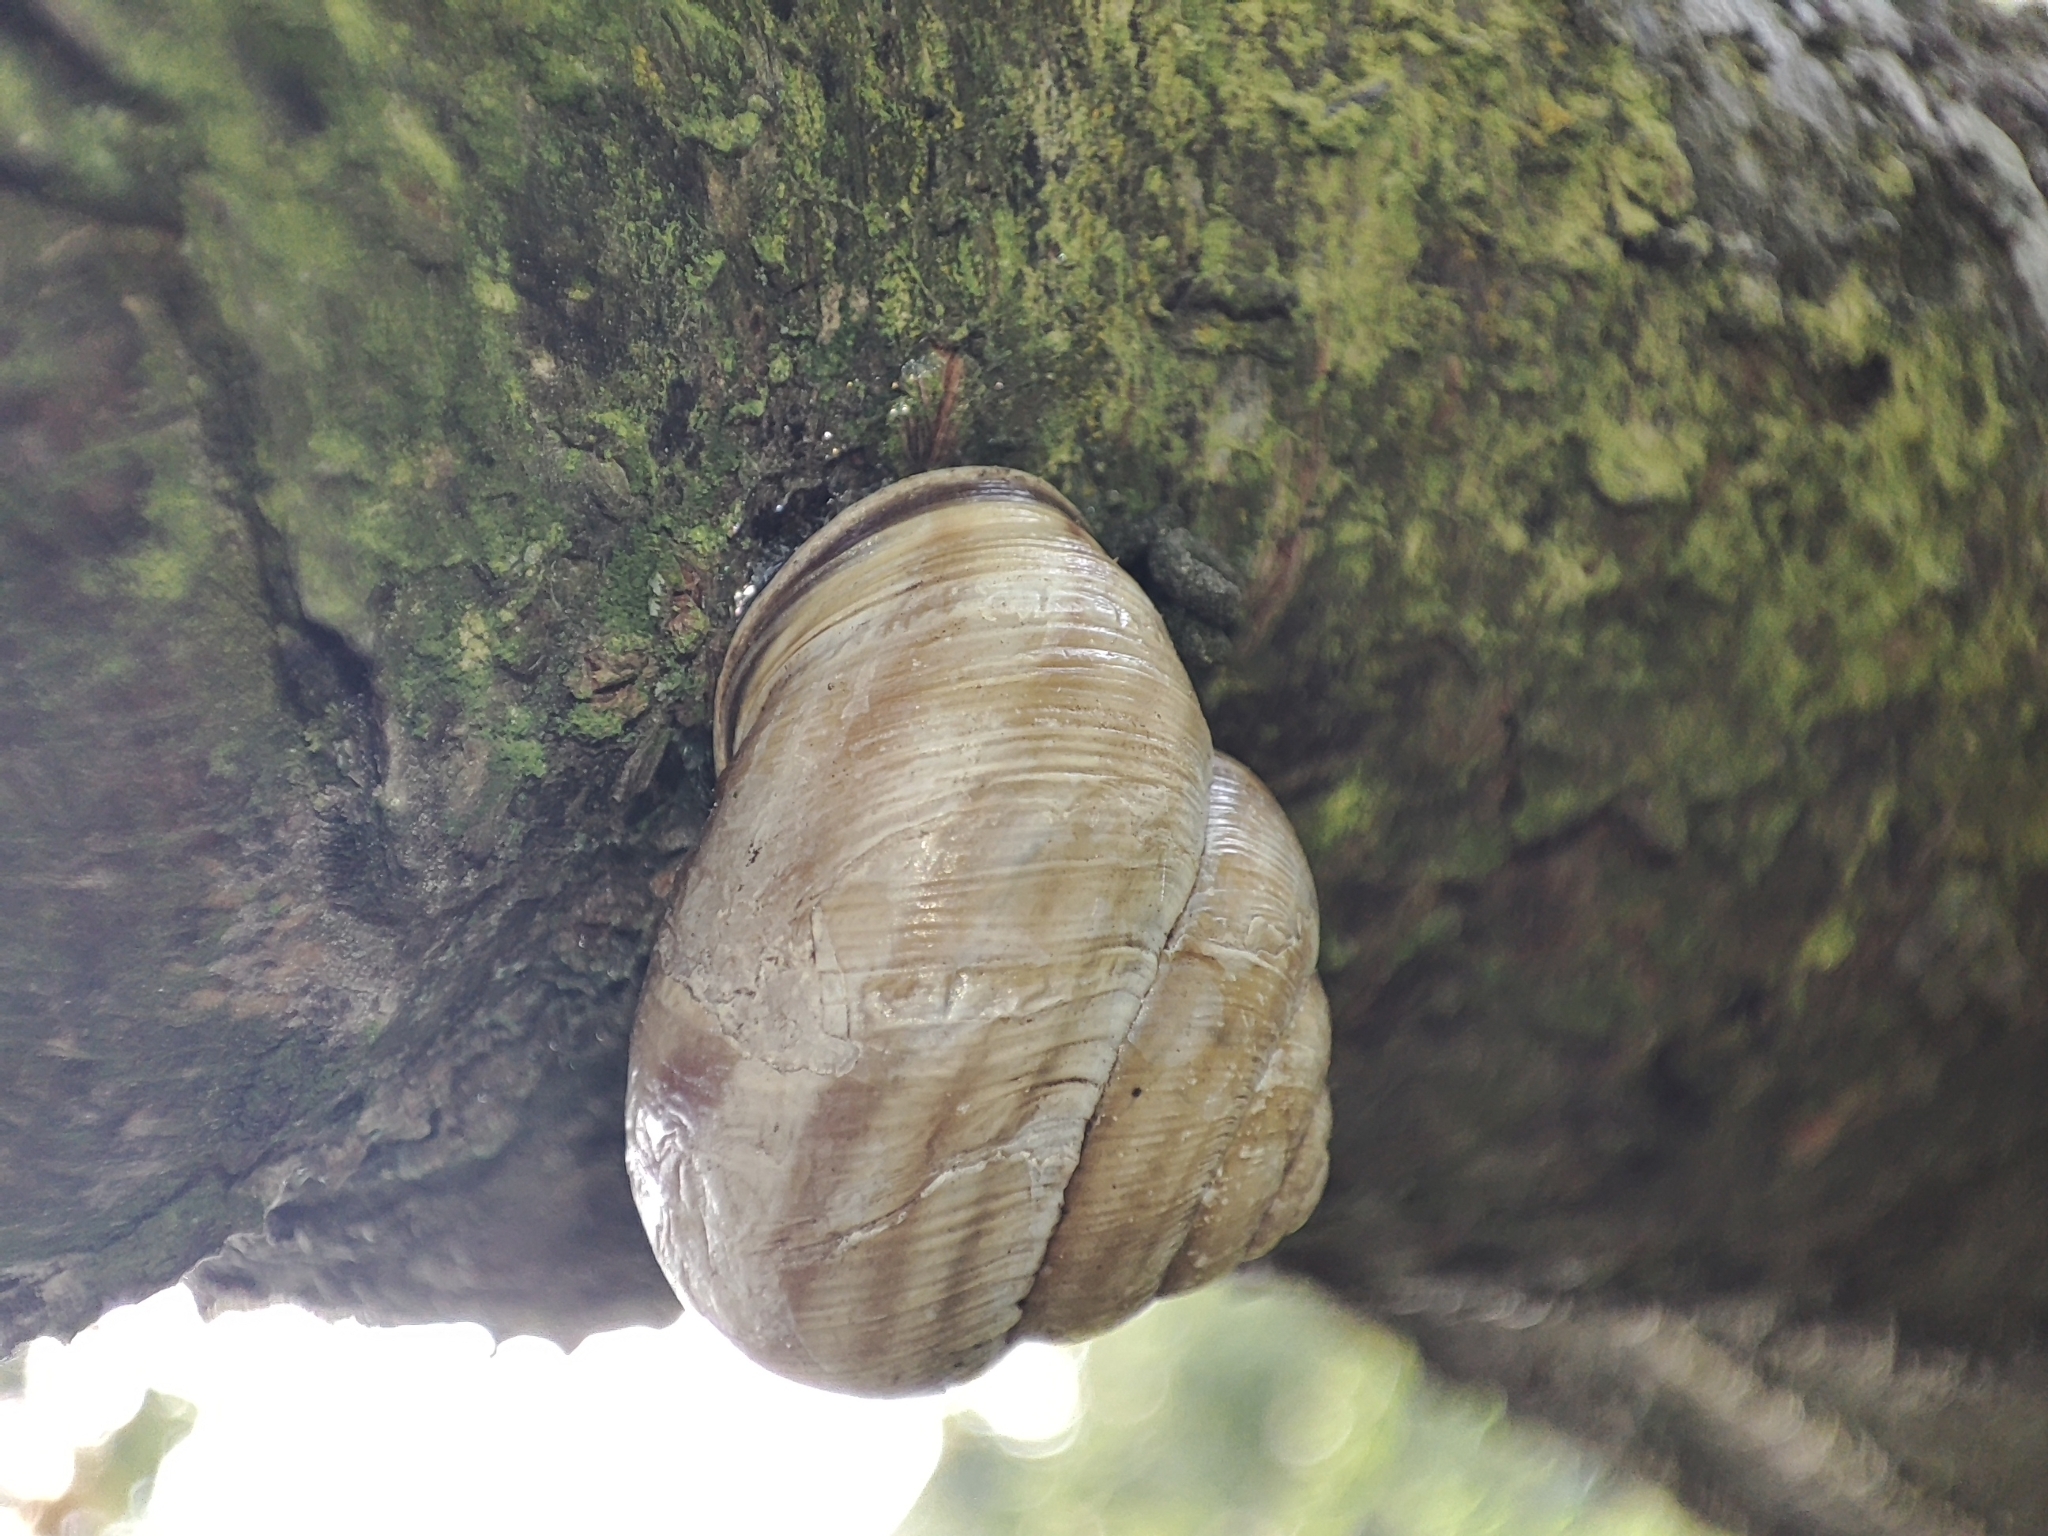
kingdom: Animalia
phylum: Mollusca
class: Gastropoda
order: Stylommatophora
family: Helicidae
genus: Caucasotachea
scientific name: Caucasotachea vindobonensis
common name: European helicid land snail
